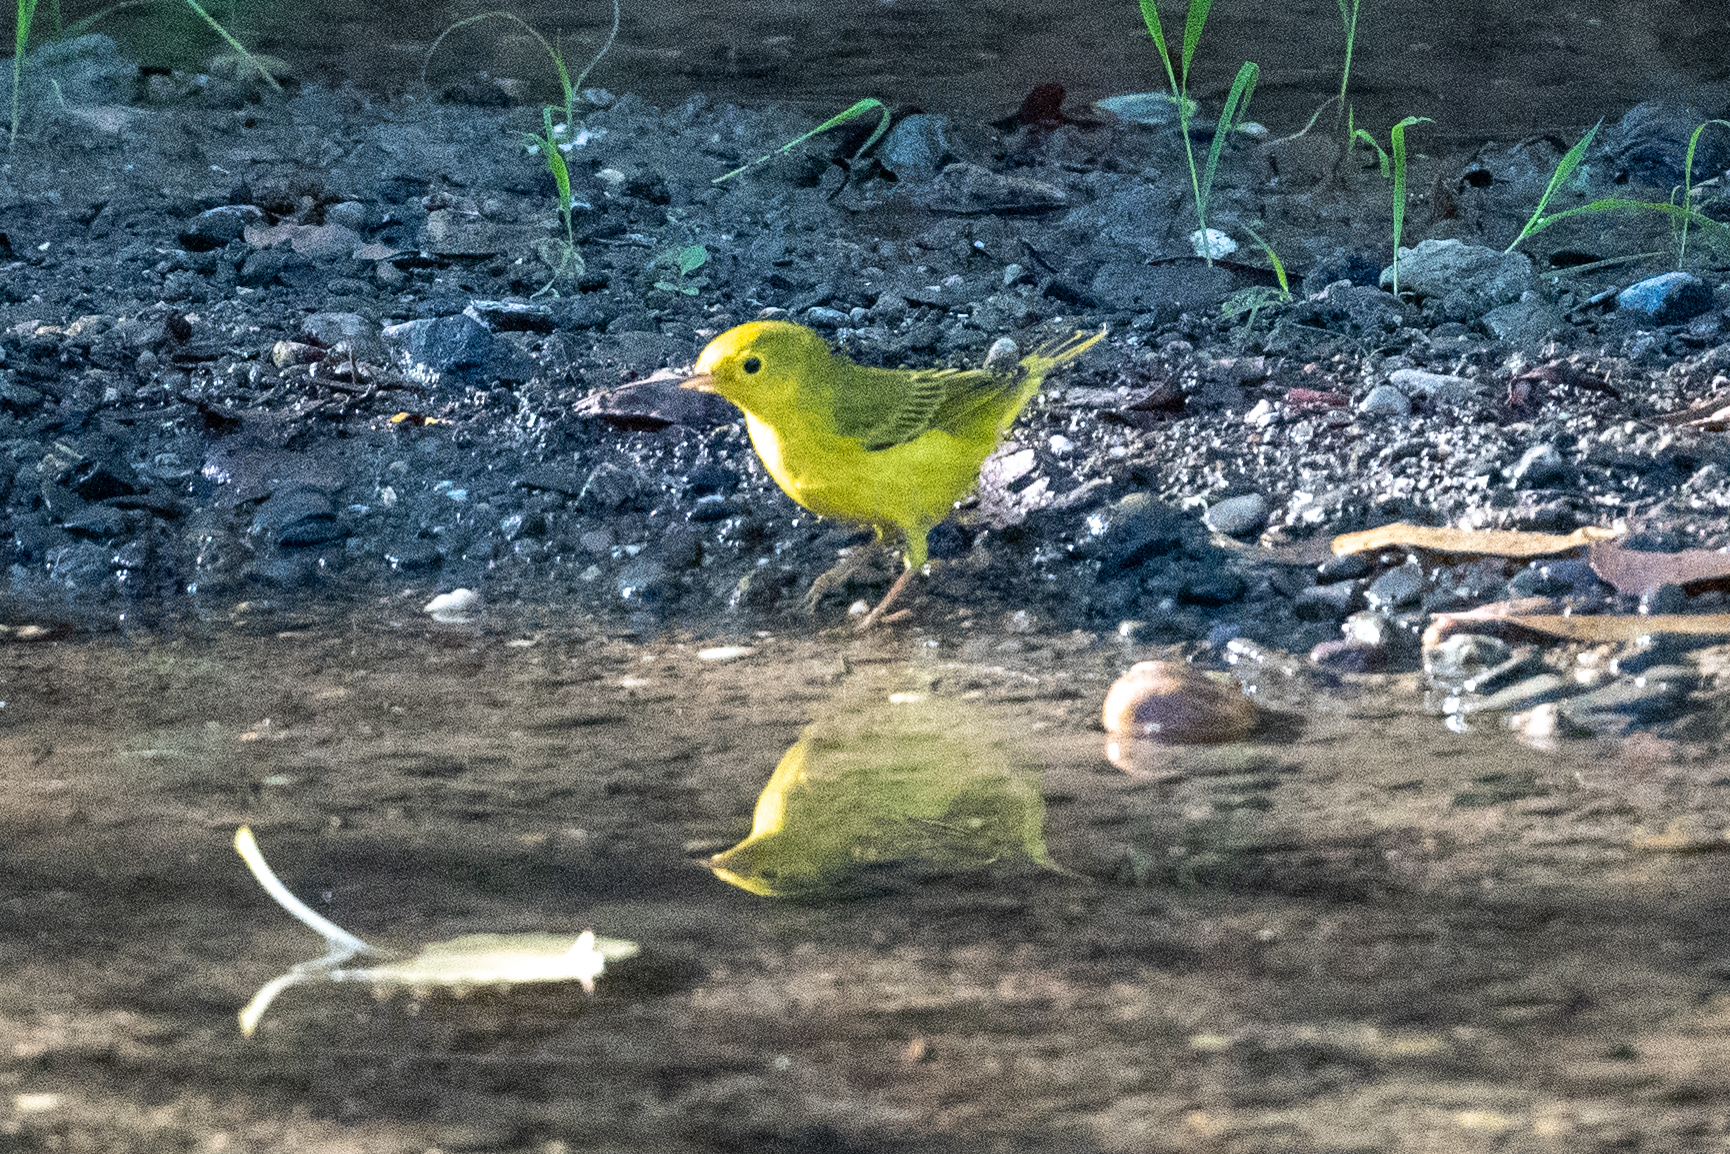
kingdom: Animalia
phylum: Chordata
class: Aves
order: Passeriformes
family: Parulidae
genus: Setophaga
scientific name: Setophaga petechia
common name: Yellow warbler
